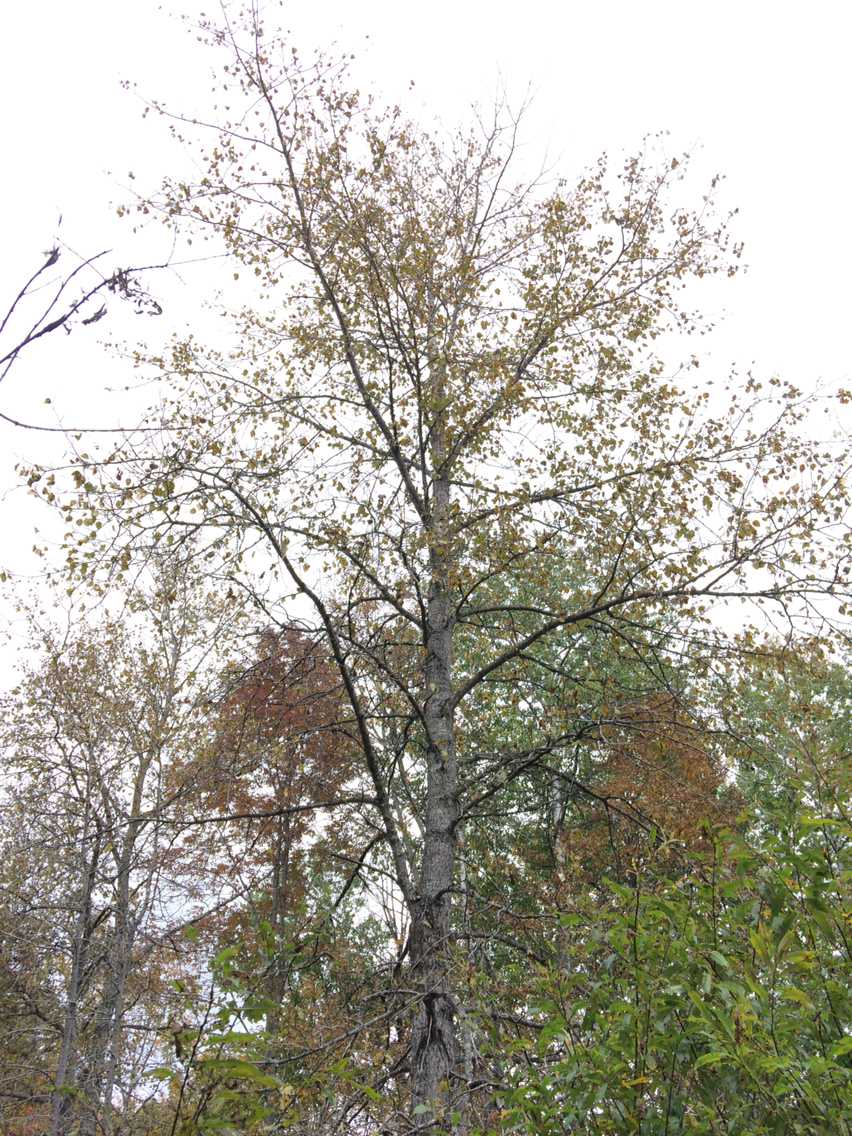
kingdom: Plantae
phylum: Tracheophyta
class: Magnoliopsida
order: Malpighiales
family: Salicaceae
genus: Populus
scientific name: Populus balsamifera
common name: Balsam poplar
